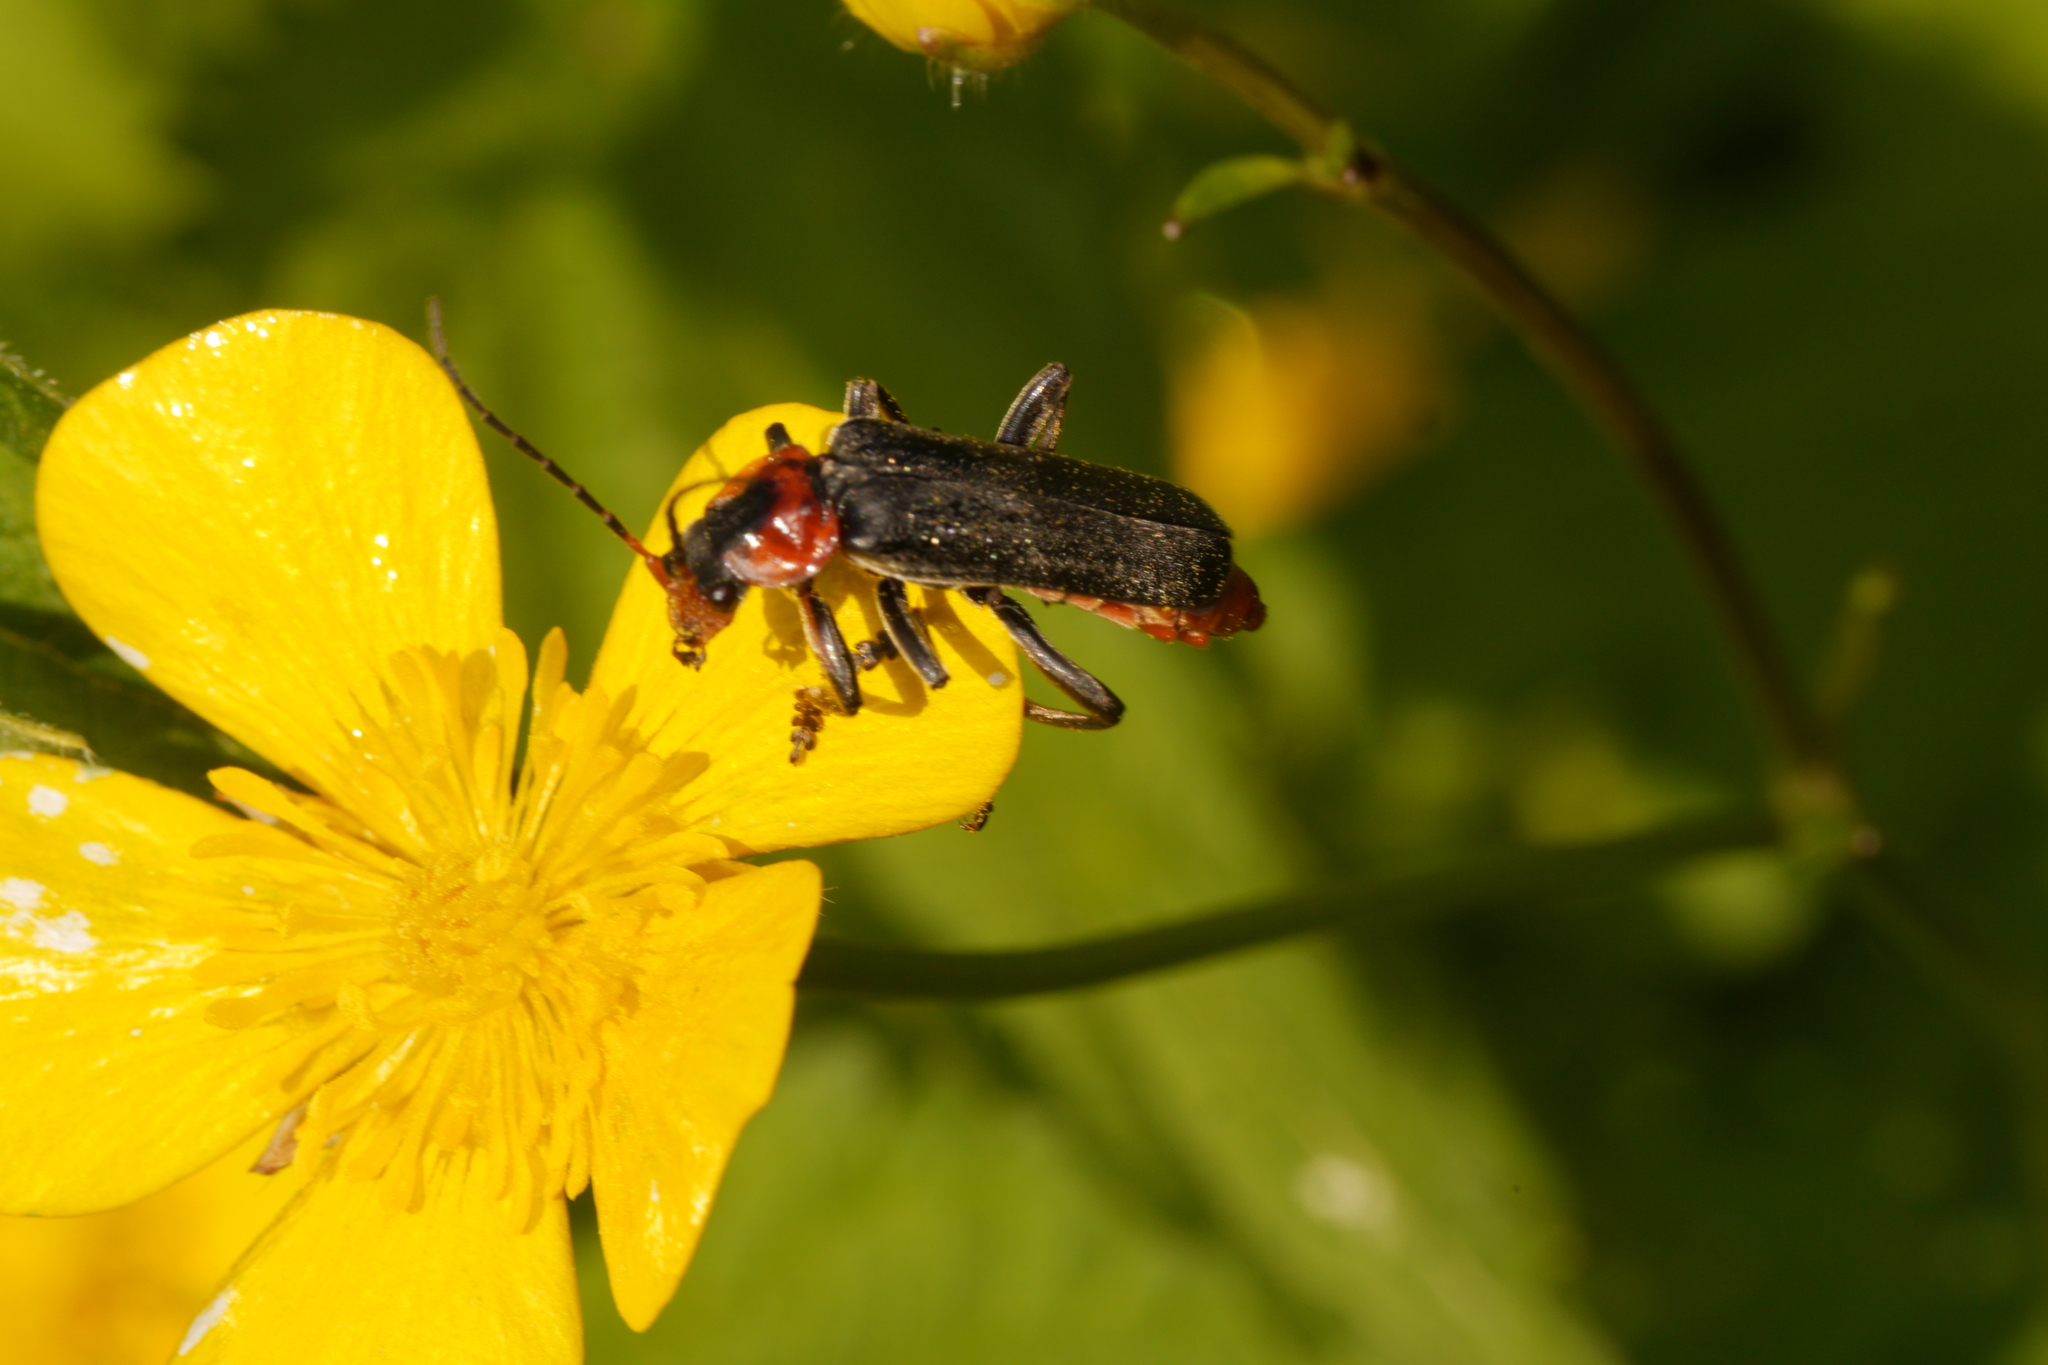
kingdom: Animalia
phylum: Arthropoda
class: Insecta
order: Coleoptera
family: Cantharidae
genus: Cantharis
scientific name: Cantharis fusca
